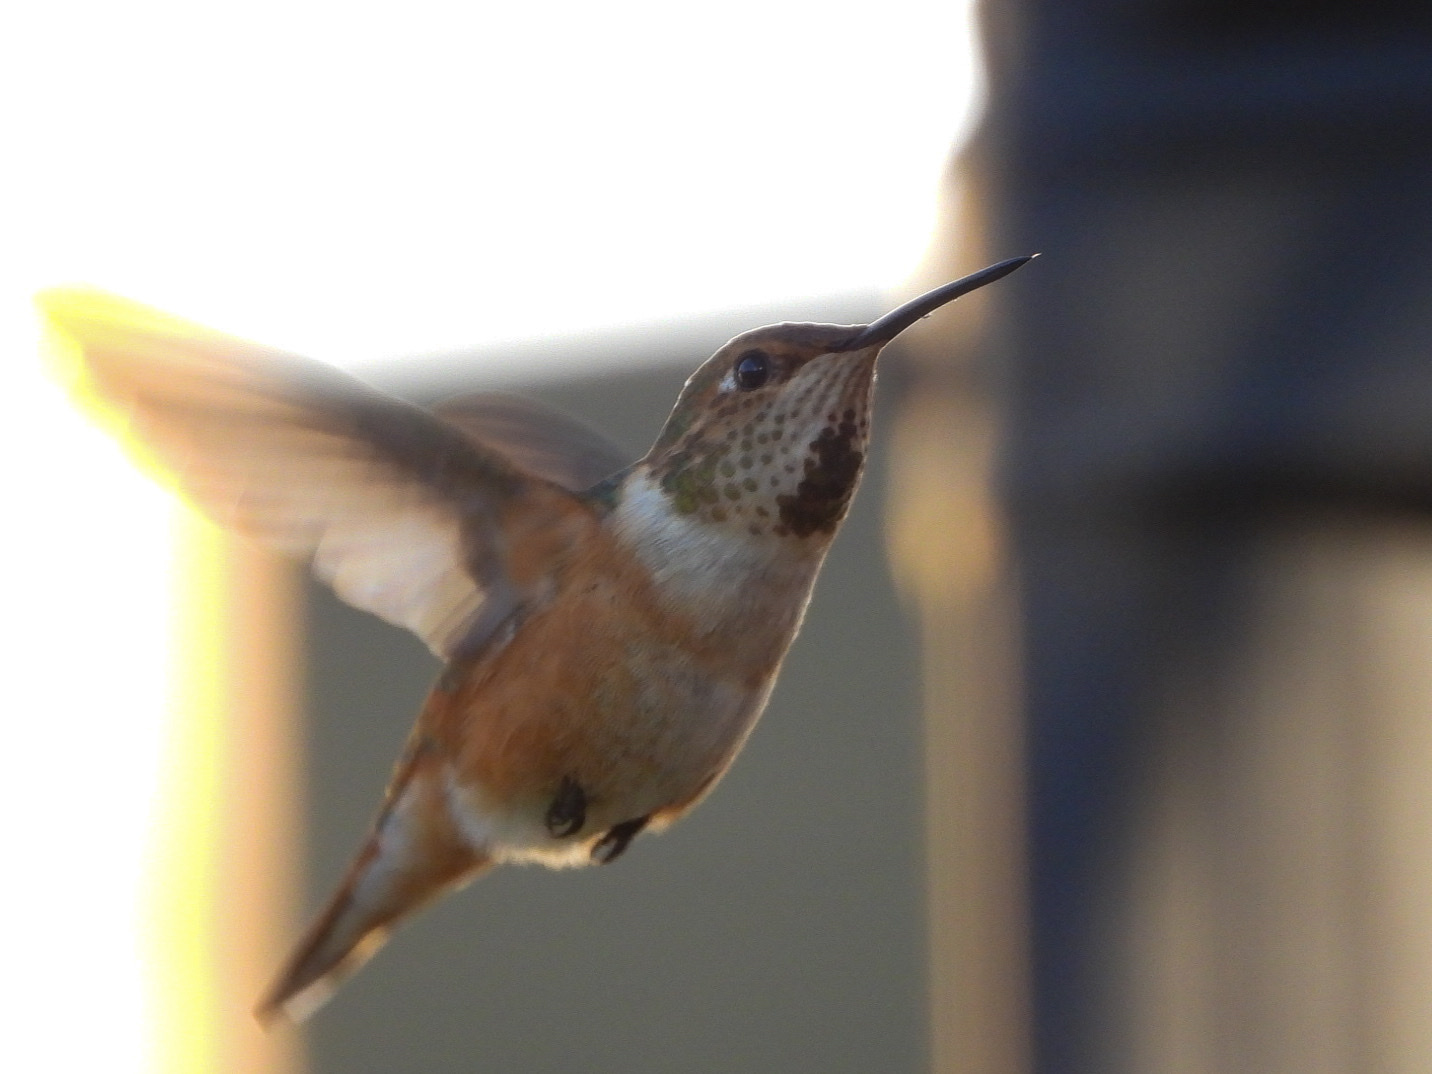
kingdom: Animalia
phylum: Chordata
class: Aves
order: Apodiformes
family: Trochilidae
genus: Selasphorus
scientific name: Selasphorus rufus
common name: Rufous hummingbird
